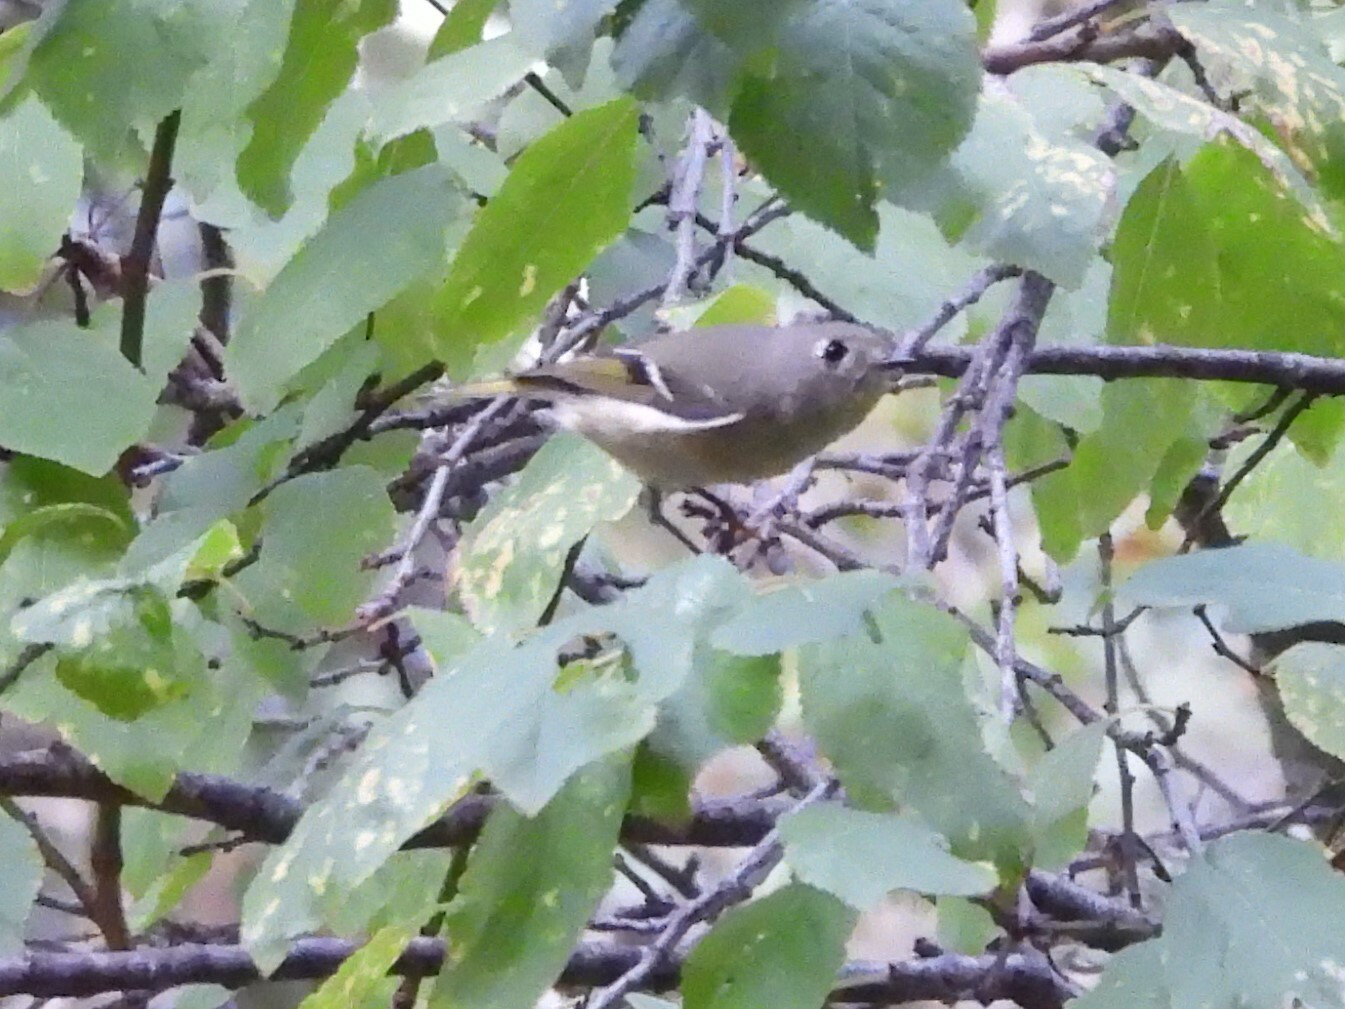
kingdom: Animalia
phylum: Chordata
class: Aves
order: Passeriformes
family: Regulidae
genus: Regulus
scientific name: Regulus calendula
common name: Ruby-crowned kinglet
